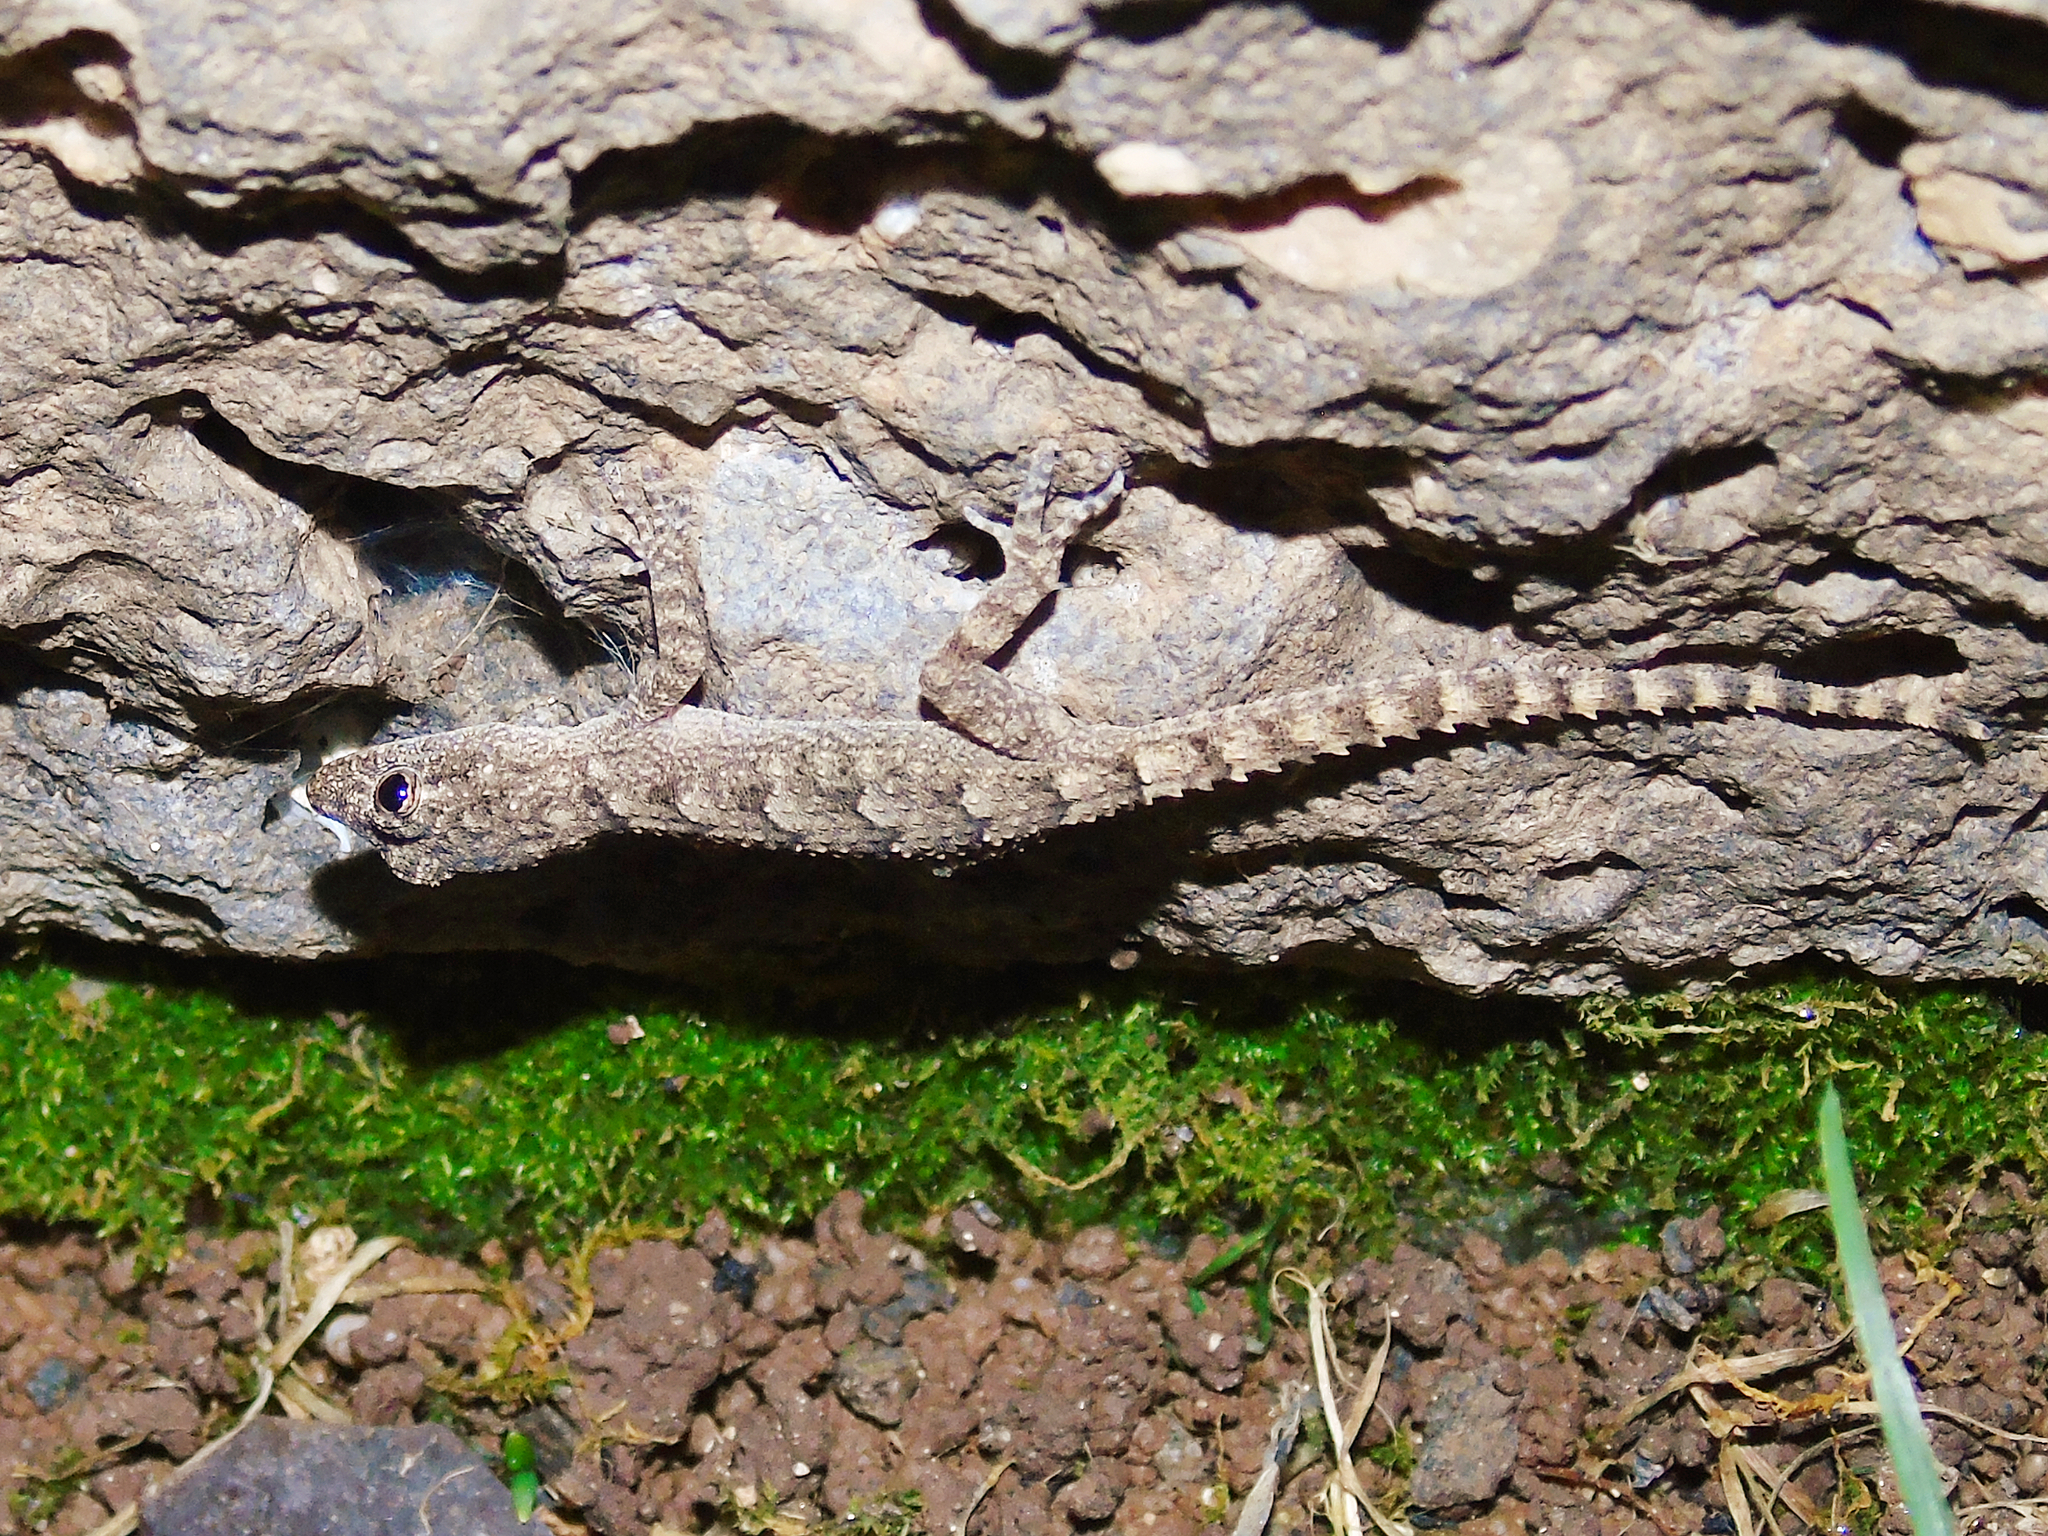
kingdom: Animalia
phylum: Chordata
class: Squamata
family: Gekkonidae
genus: Mediodactylus
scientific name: Mediodactylus heterocercus
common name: Asia minor thin-toed gecko
